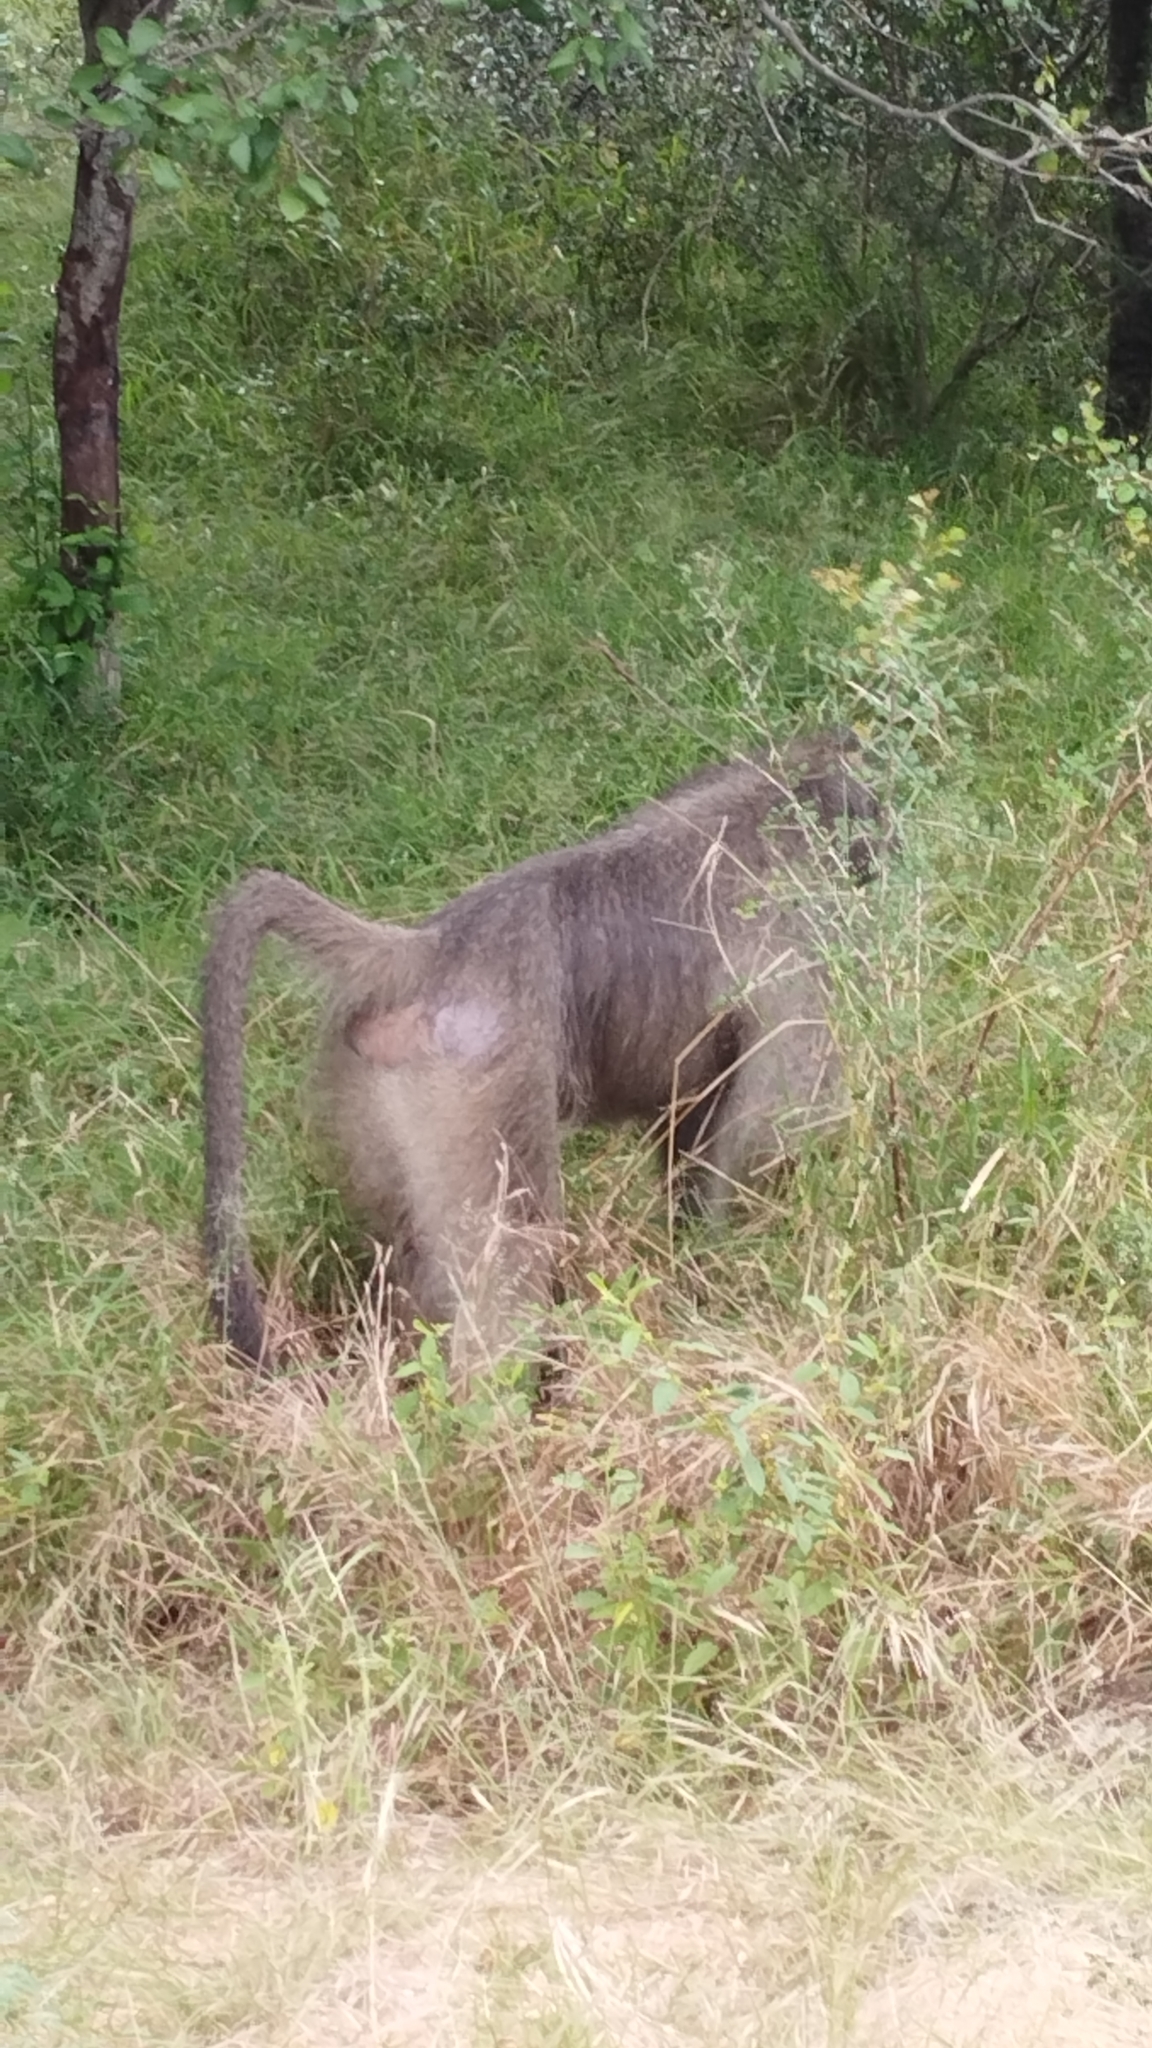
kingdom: Animalia
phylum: Chordata
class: Mammalia
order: Primates
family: Cercopithecidae
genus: Papio
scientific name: Papio ursinus
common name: Chacma baboon
